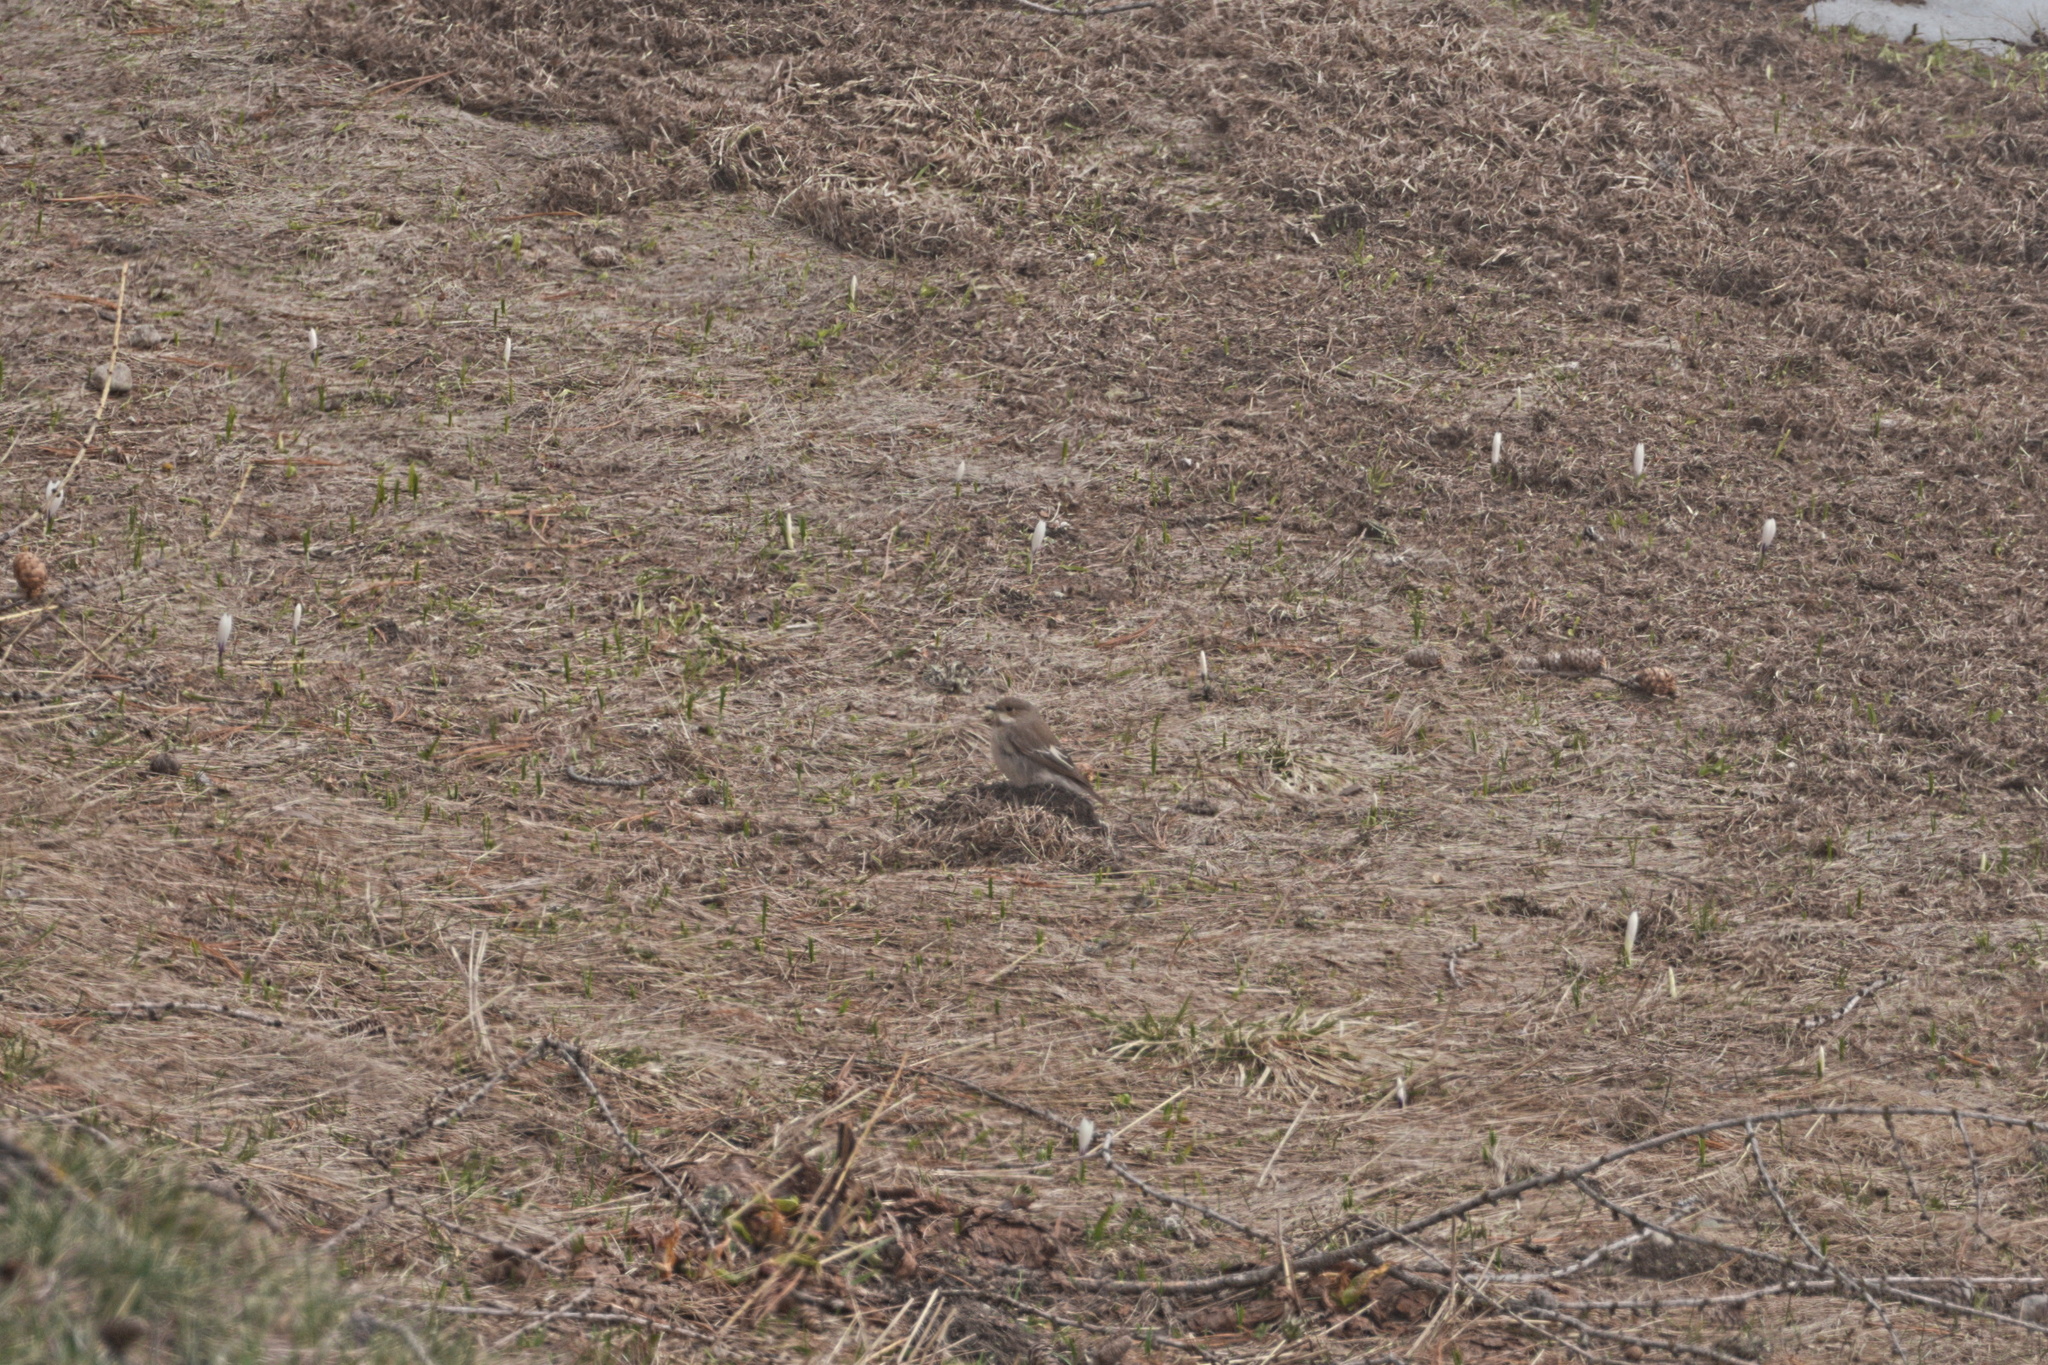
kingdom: Animalia
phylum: Chordata
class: Aves
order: Passeriformes
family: Muscicapidae
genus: Ficedula
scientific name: Ficedula hypoleuca
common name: European pied flycatcher
